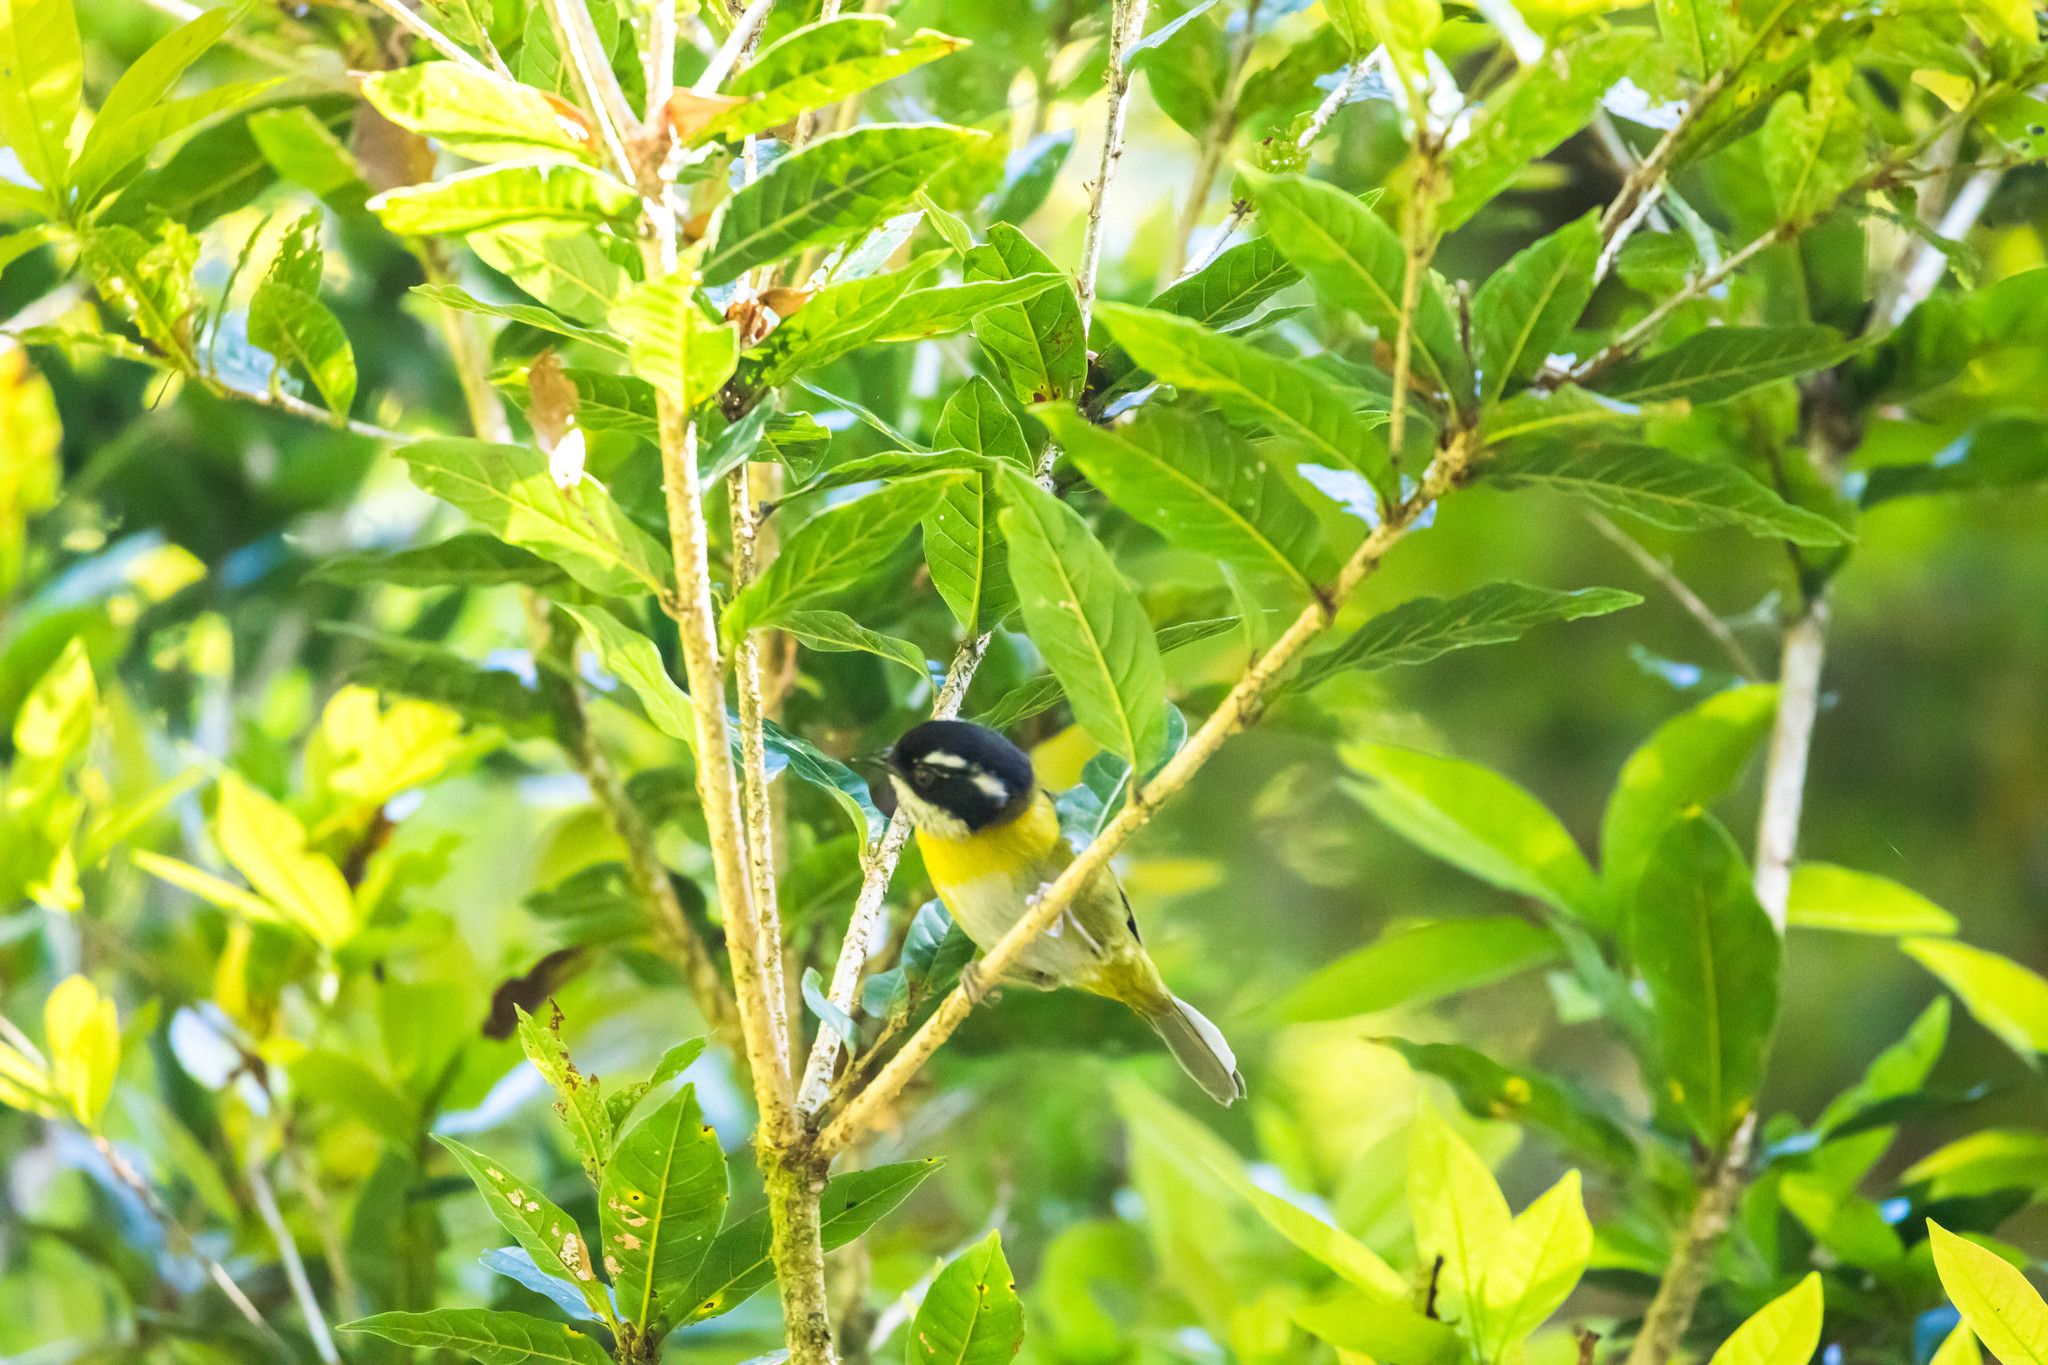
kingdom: Animalia
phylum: Chordata
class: Aves
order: Passeriformes
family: Passerellidae
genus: Chlorospingus
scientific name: Chlorospingus pileatus
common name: Sooty-capped bush-tanager
